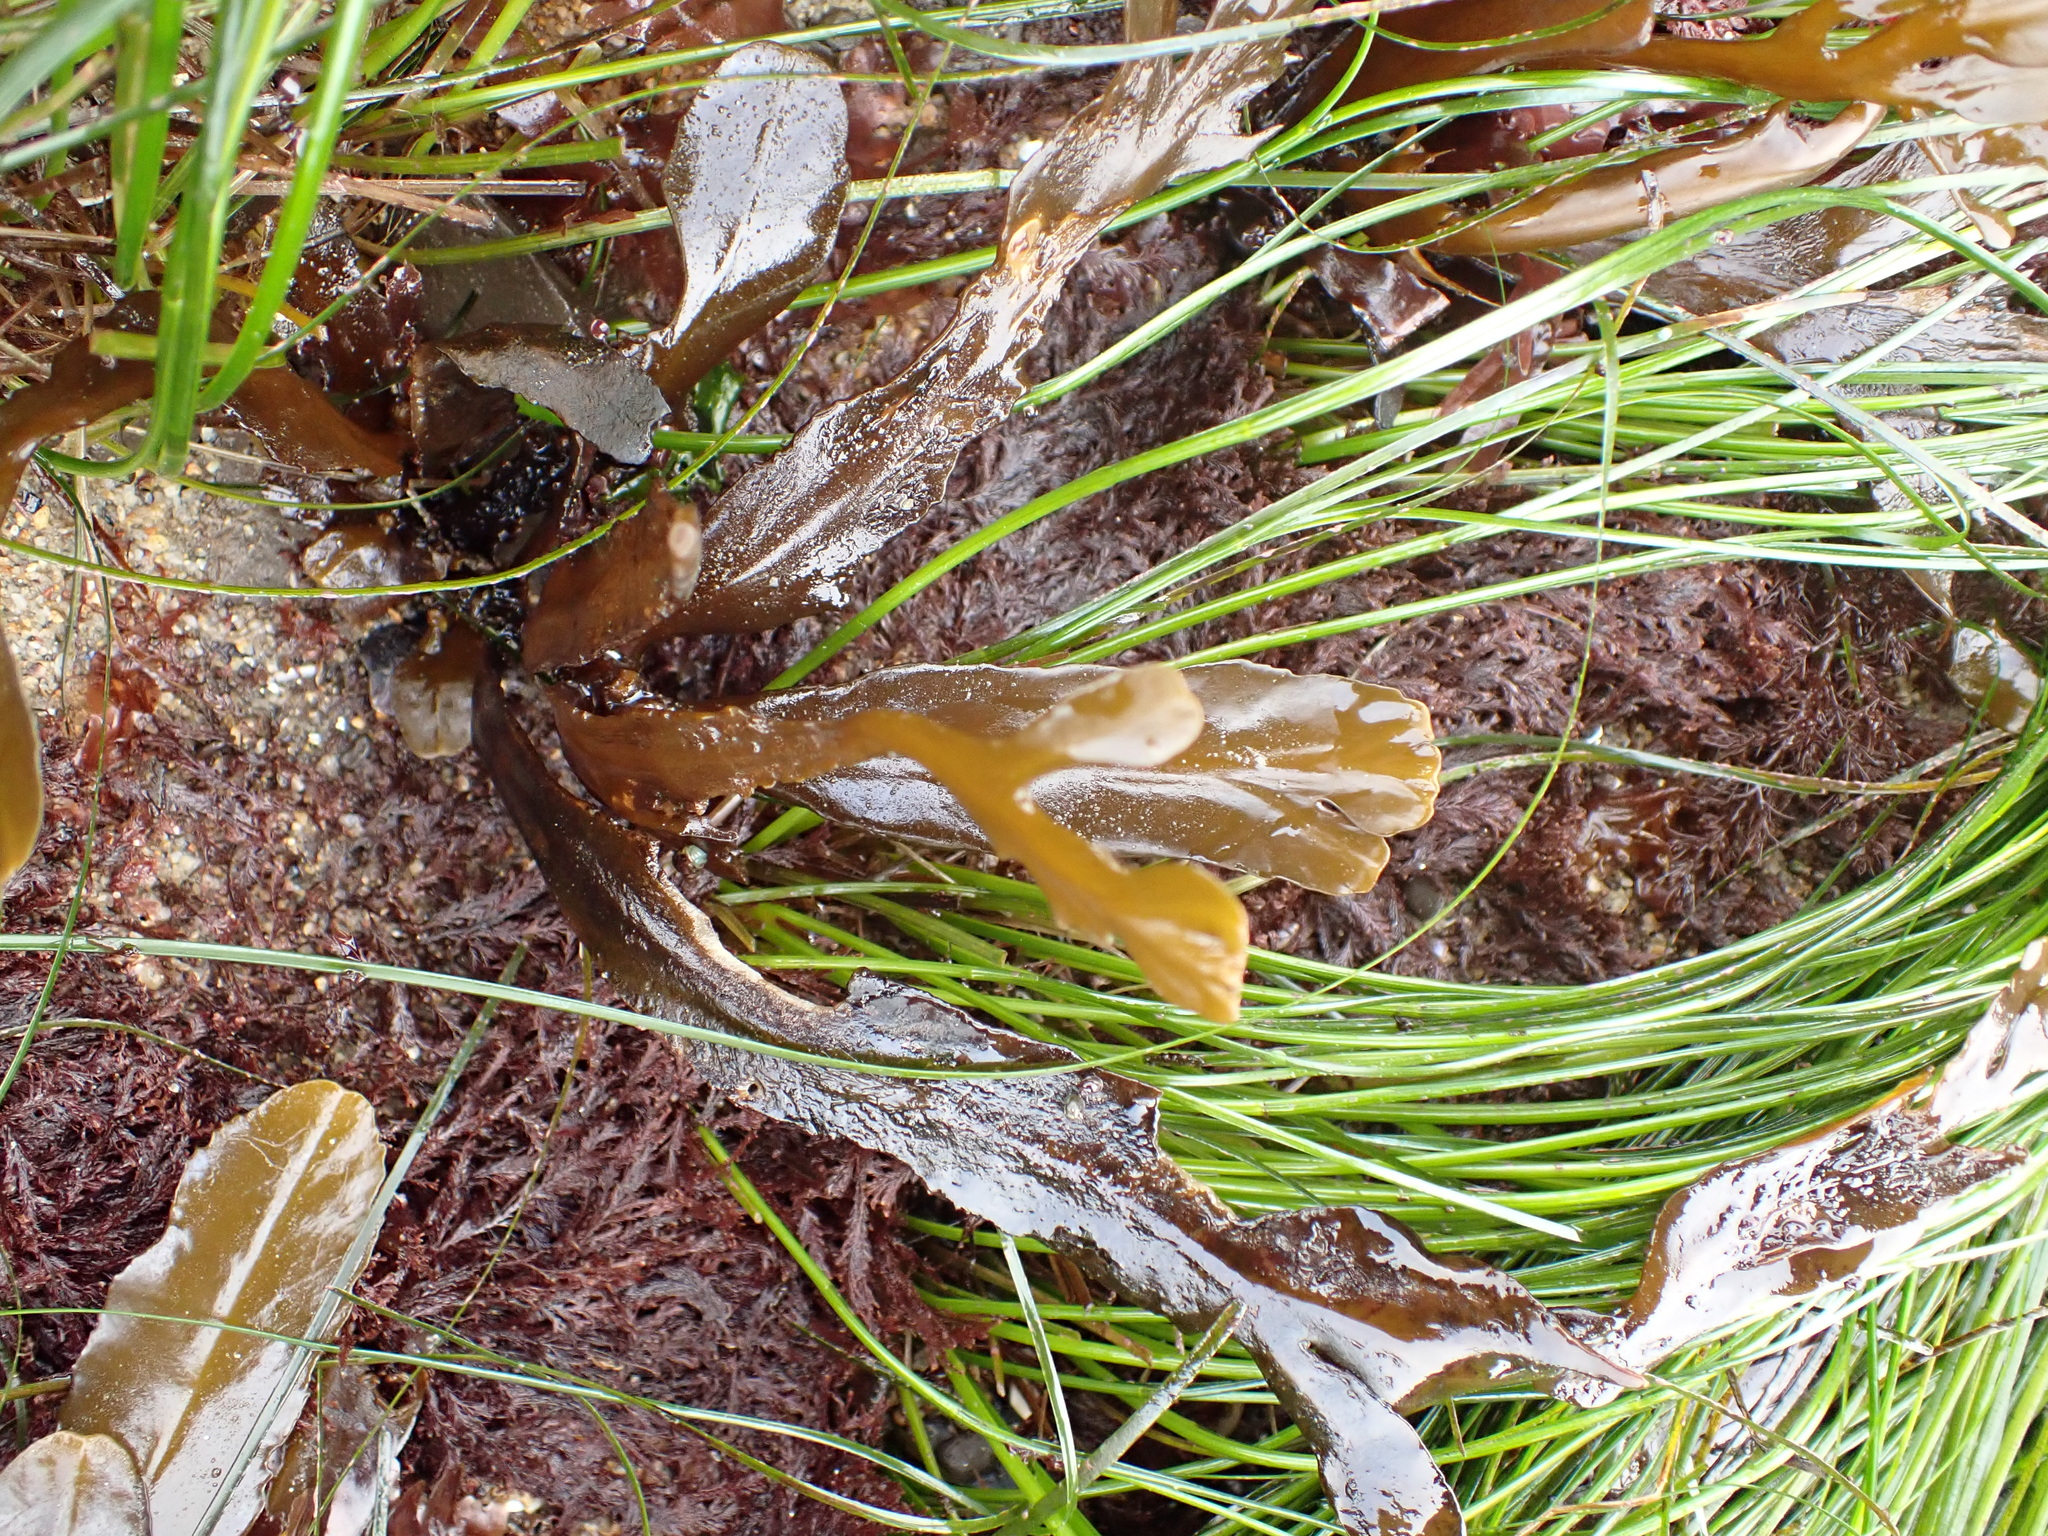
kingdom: Chromista
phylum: Ochrophyta
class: Phaeophyceae
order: Fucales
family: Sargassaceae
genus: Stephanocystis
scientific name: Stephanocystis
